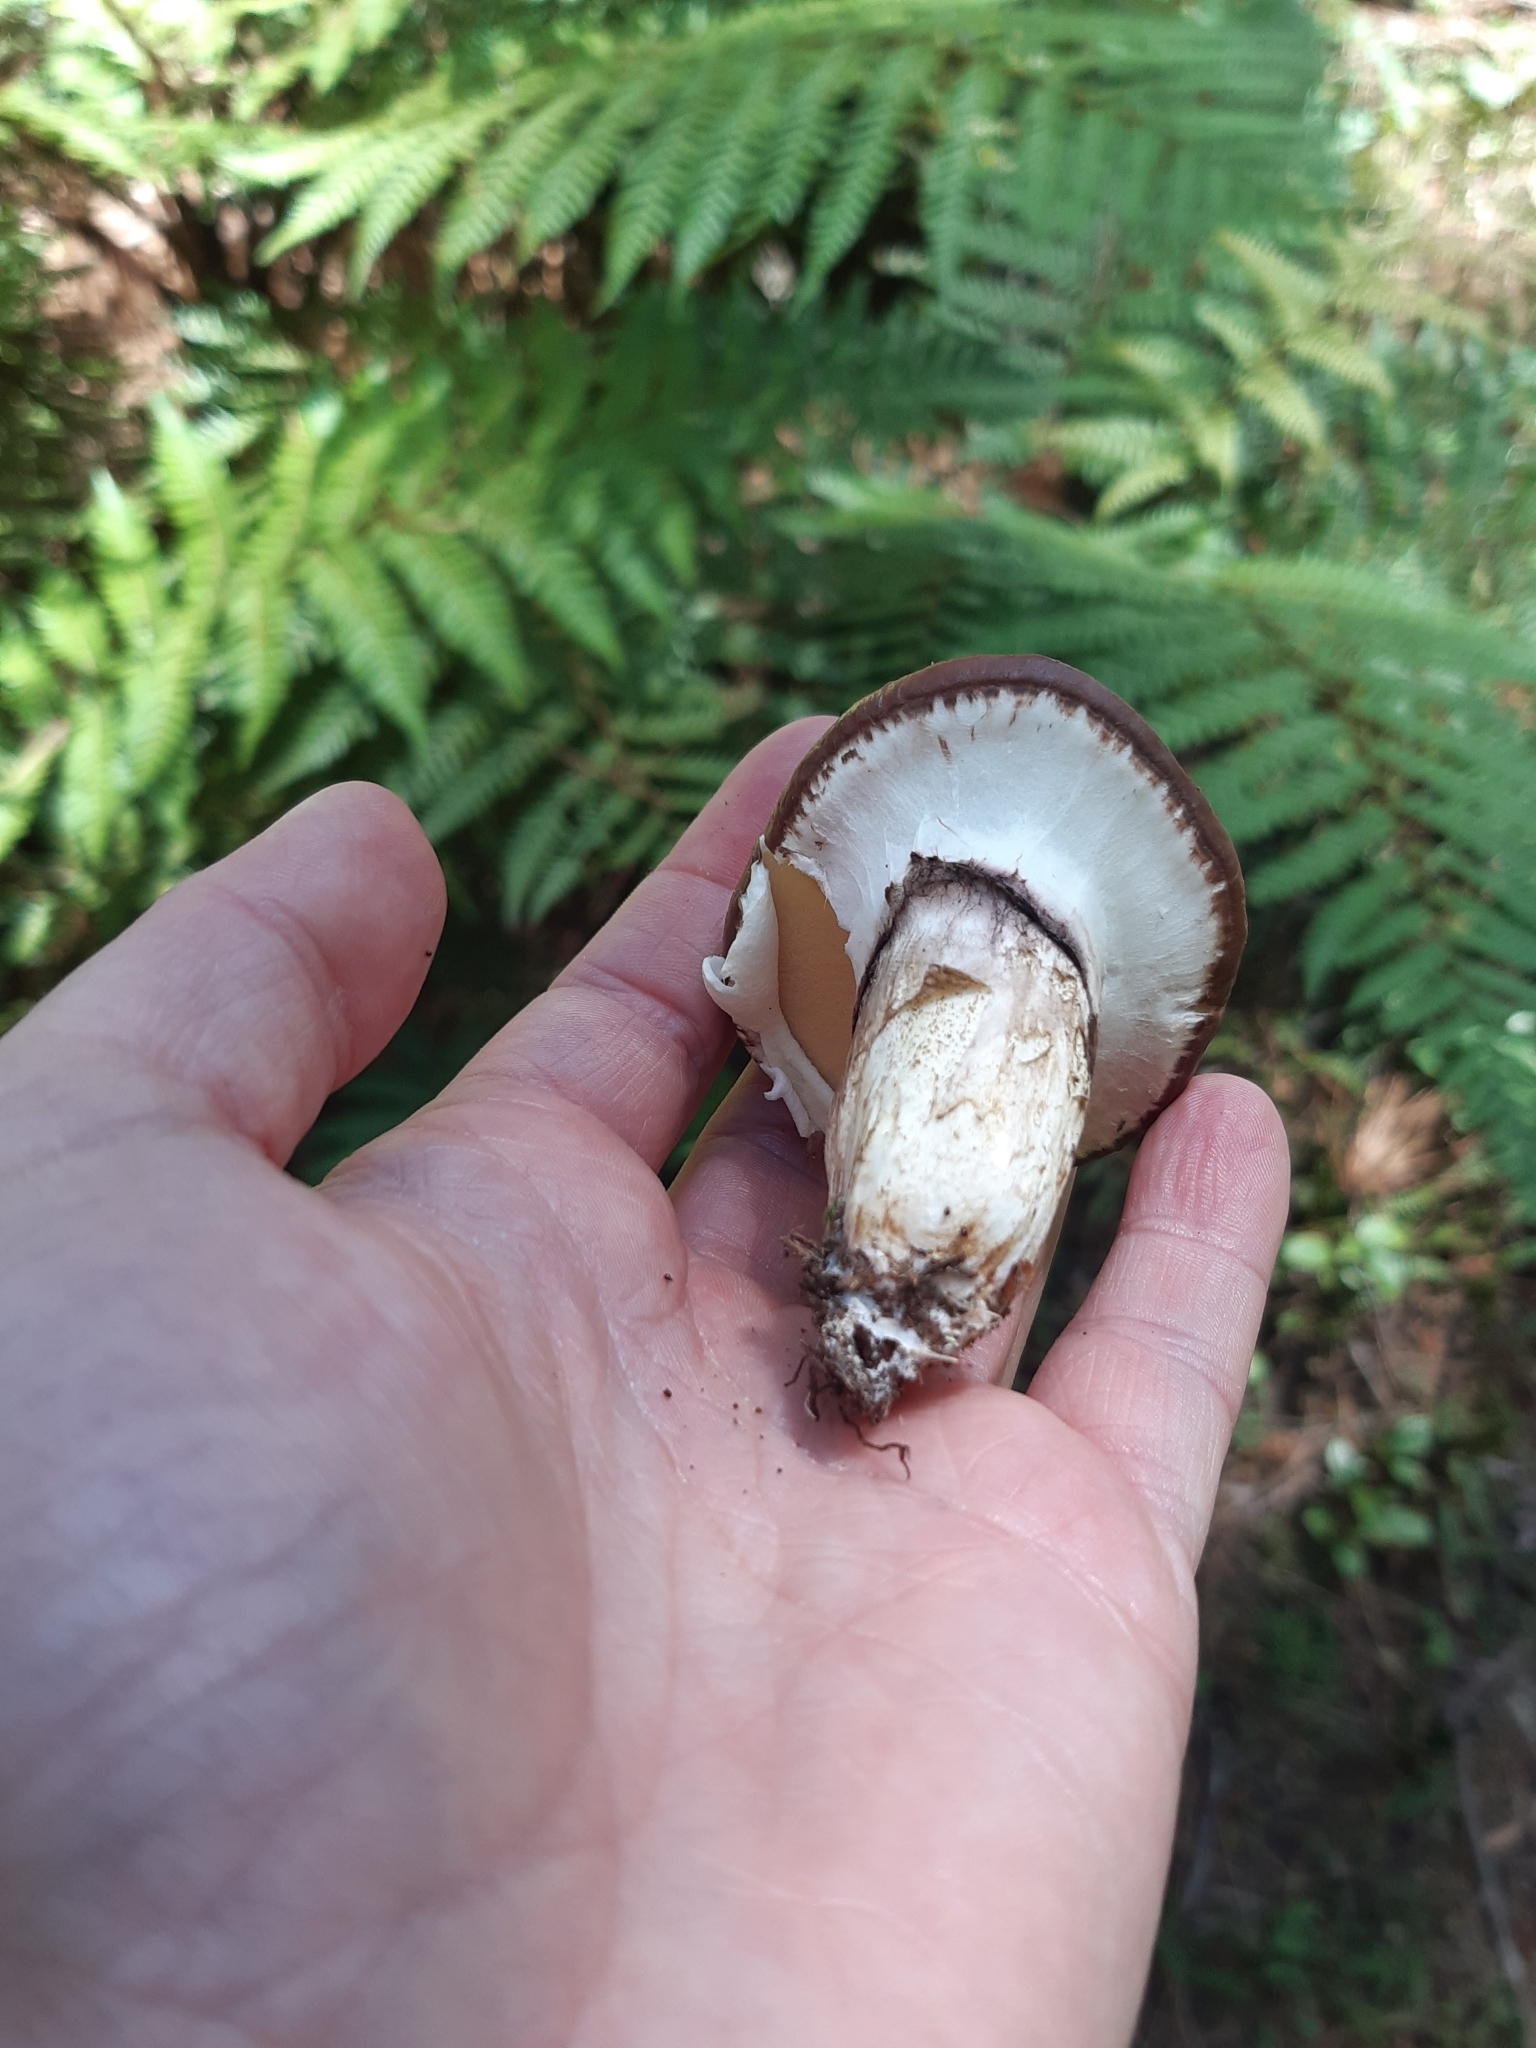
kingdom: Fungi
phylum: Basidiomycota
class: Agaricomycetes
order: Boletales
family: Suillaceae
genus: Suillus
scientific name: Suillus luteus
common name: Slippery jack
